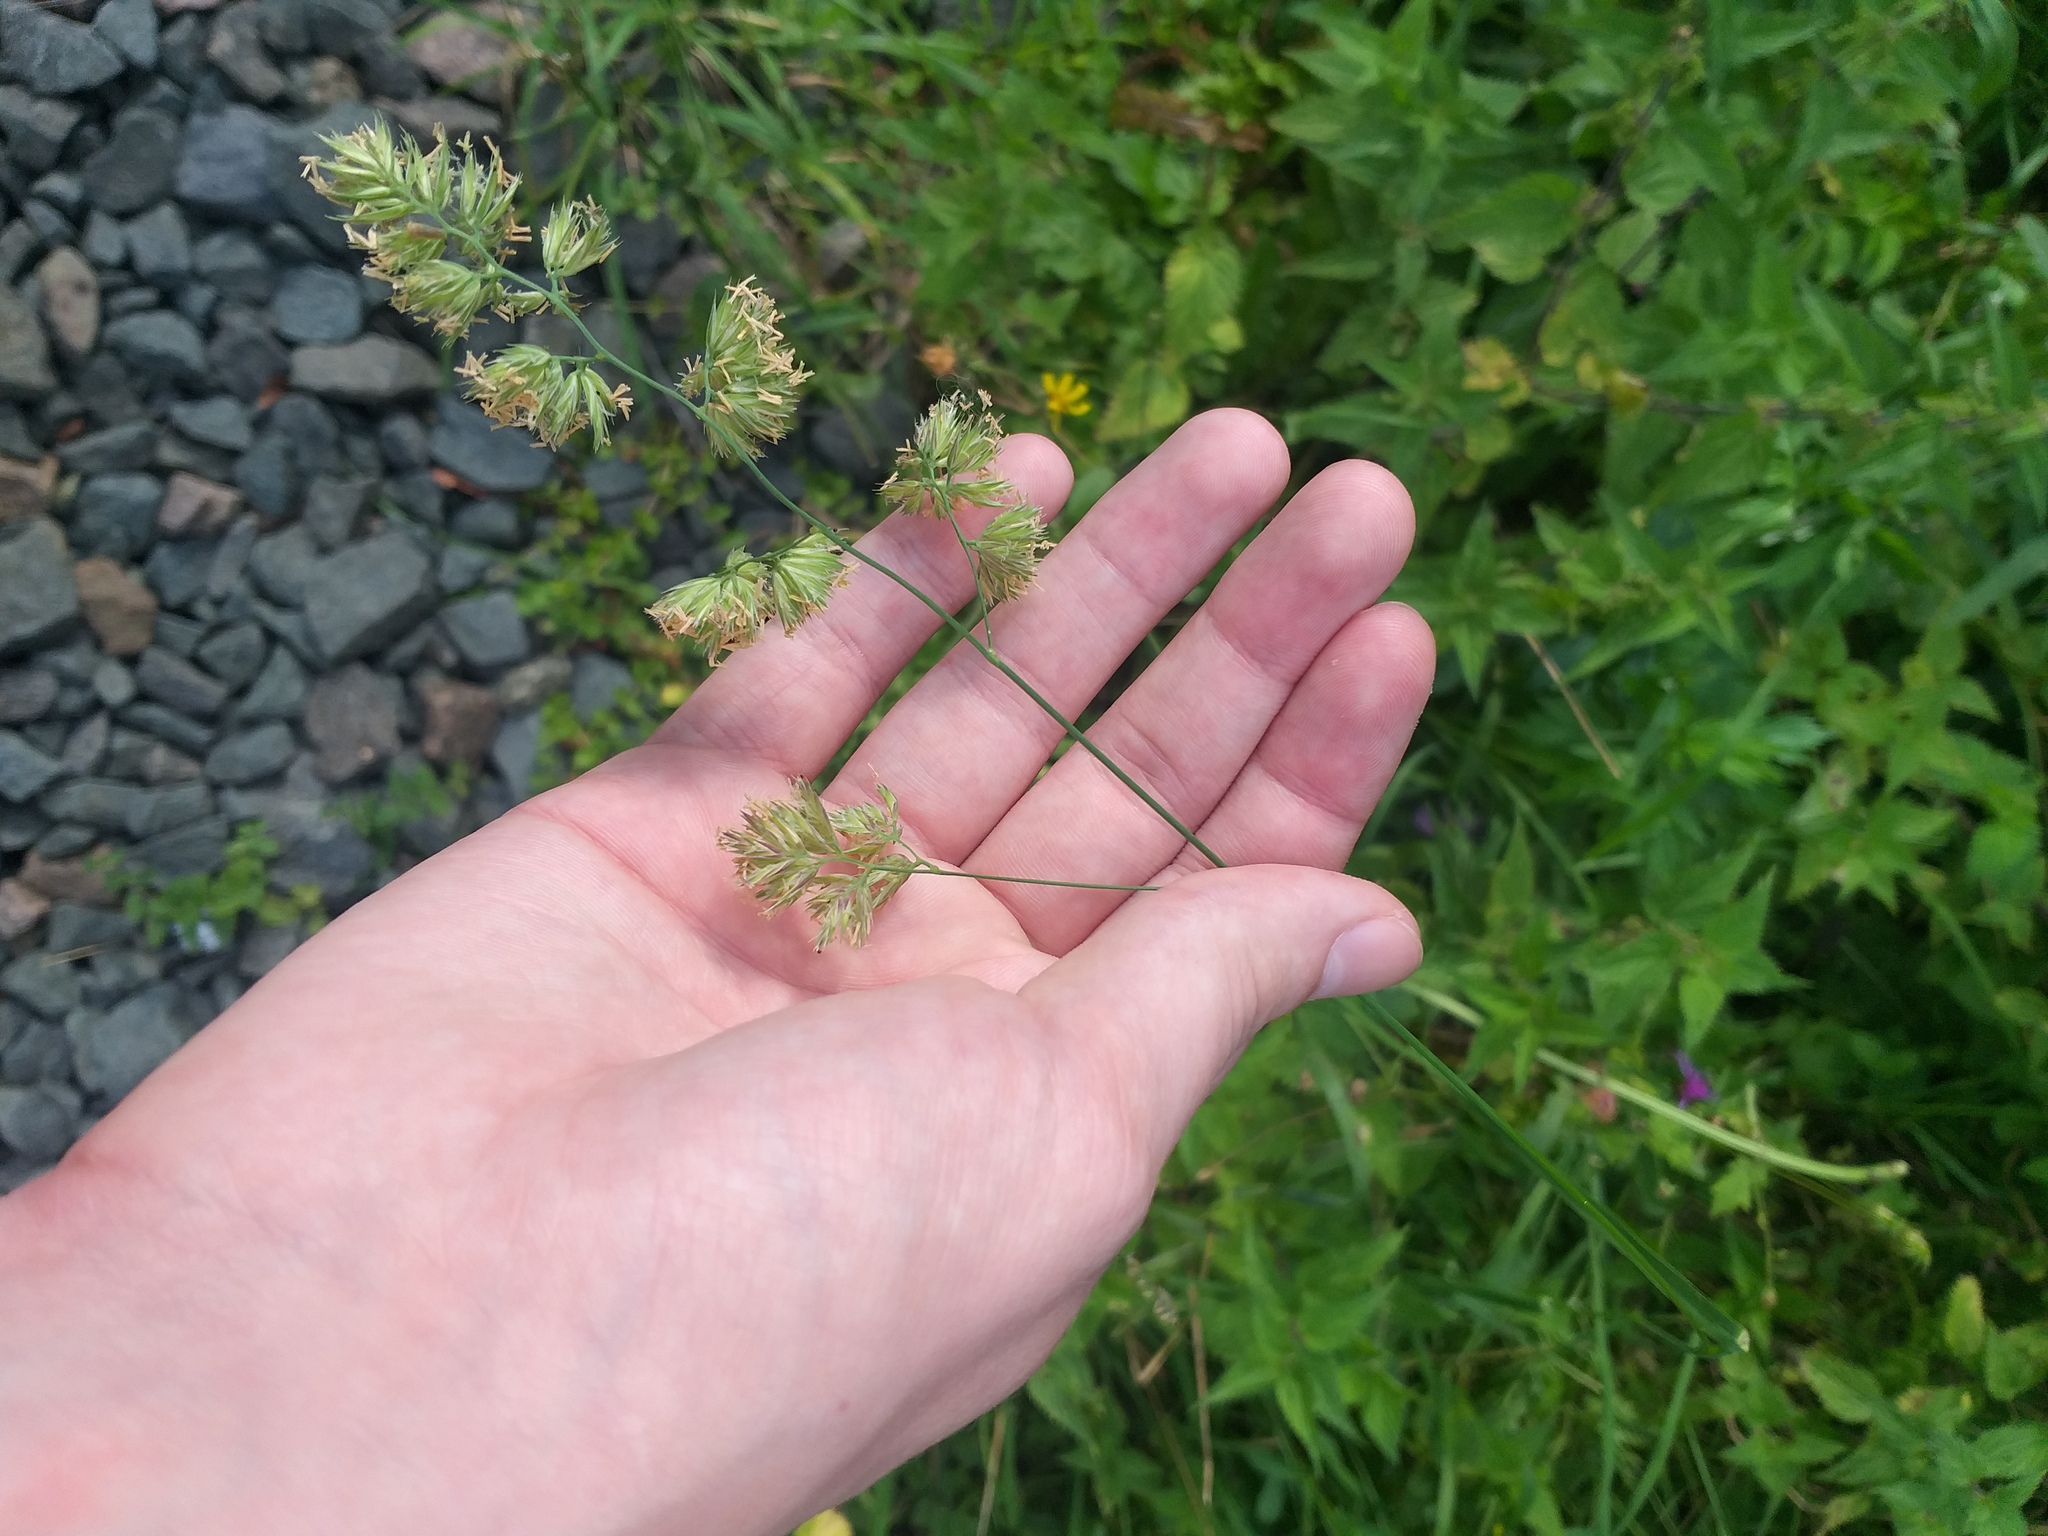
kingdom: Plantae
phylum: Tracheophyta
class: Liliopsida
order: Poales
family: Poaceae
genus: Dactylis
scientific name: Dactylis glomerata
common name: Orchardgrass
